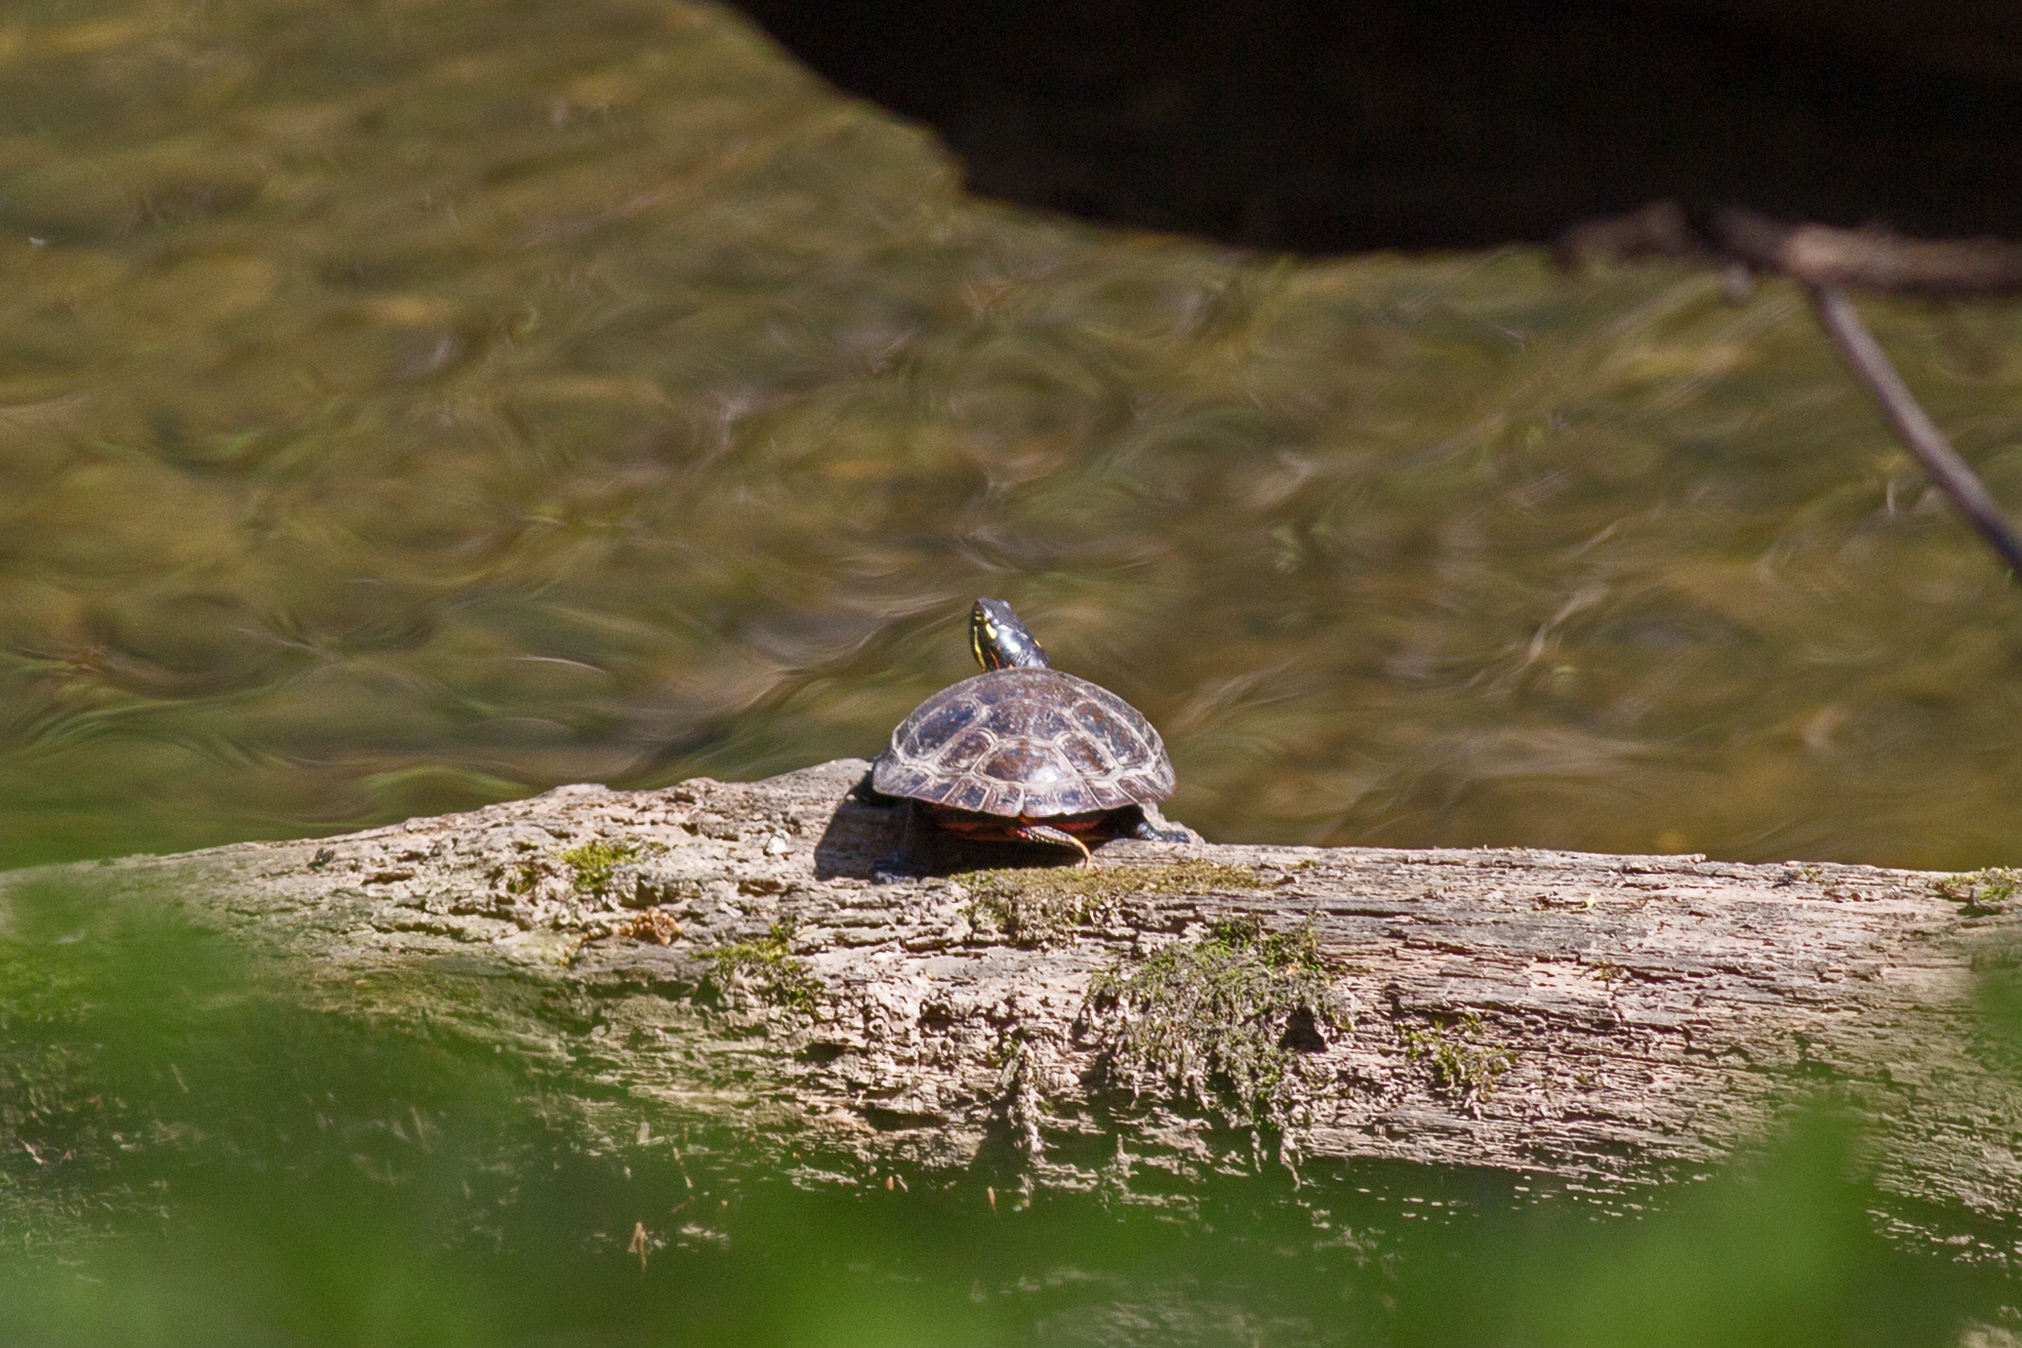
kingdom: Animalia
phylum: Chordata
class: Testudines
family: Emydidae
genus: Chrysemys
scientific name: Chrysemys picta
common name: Painted turtle
